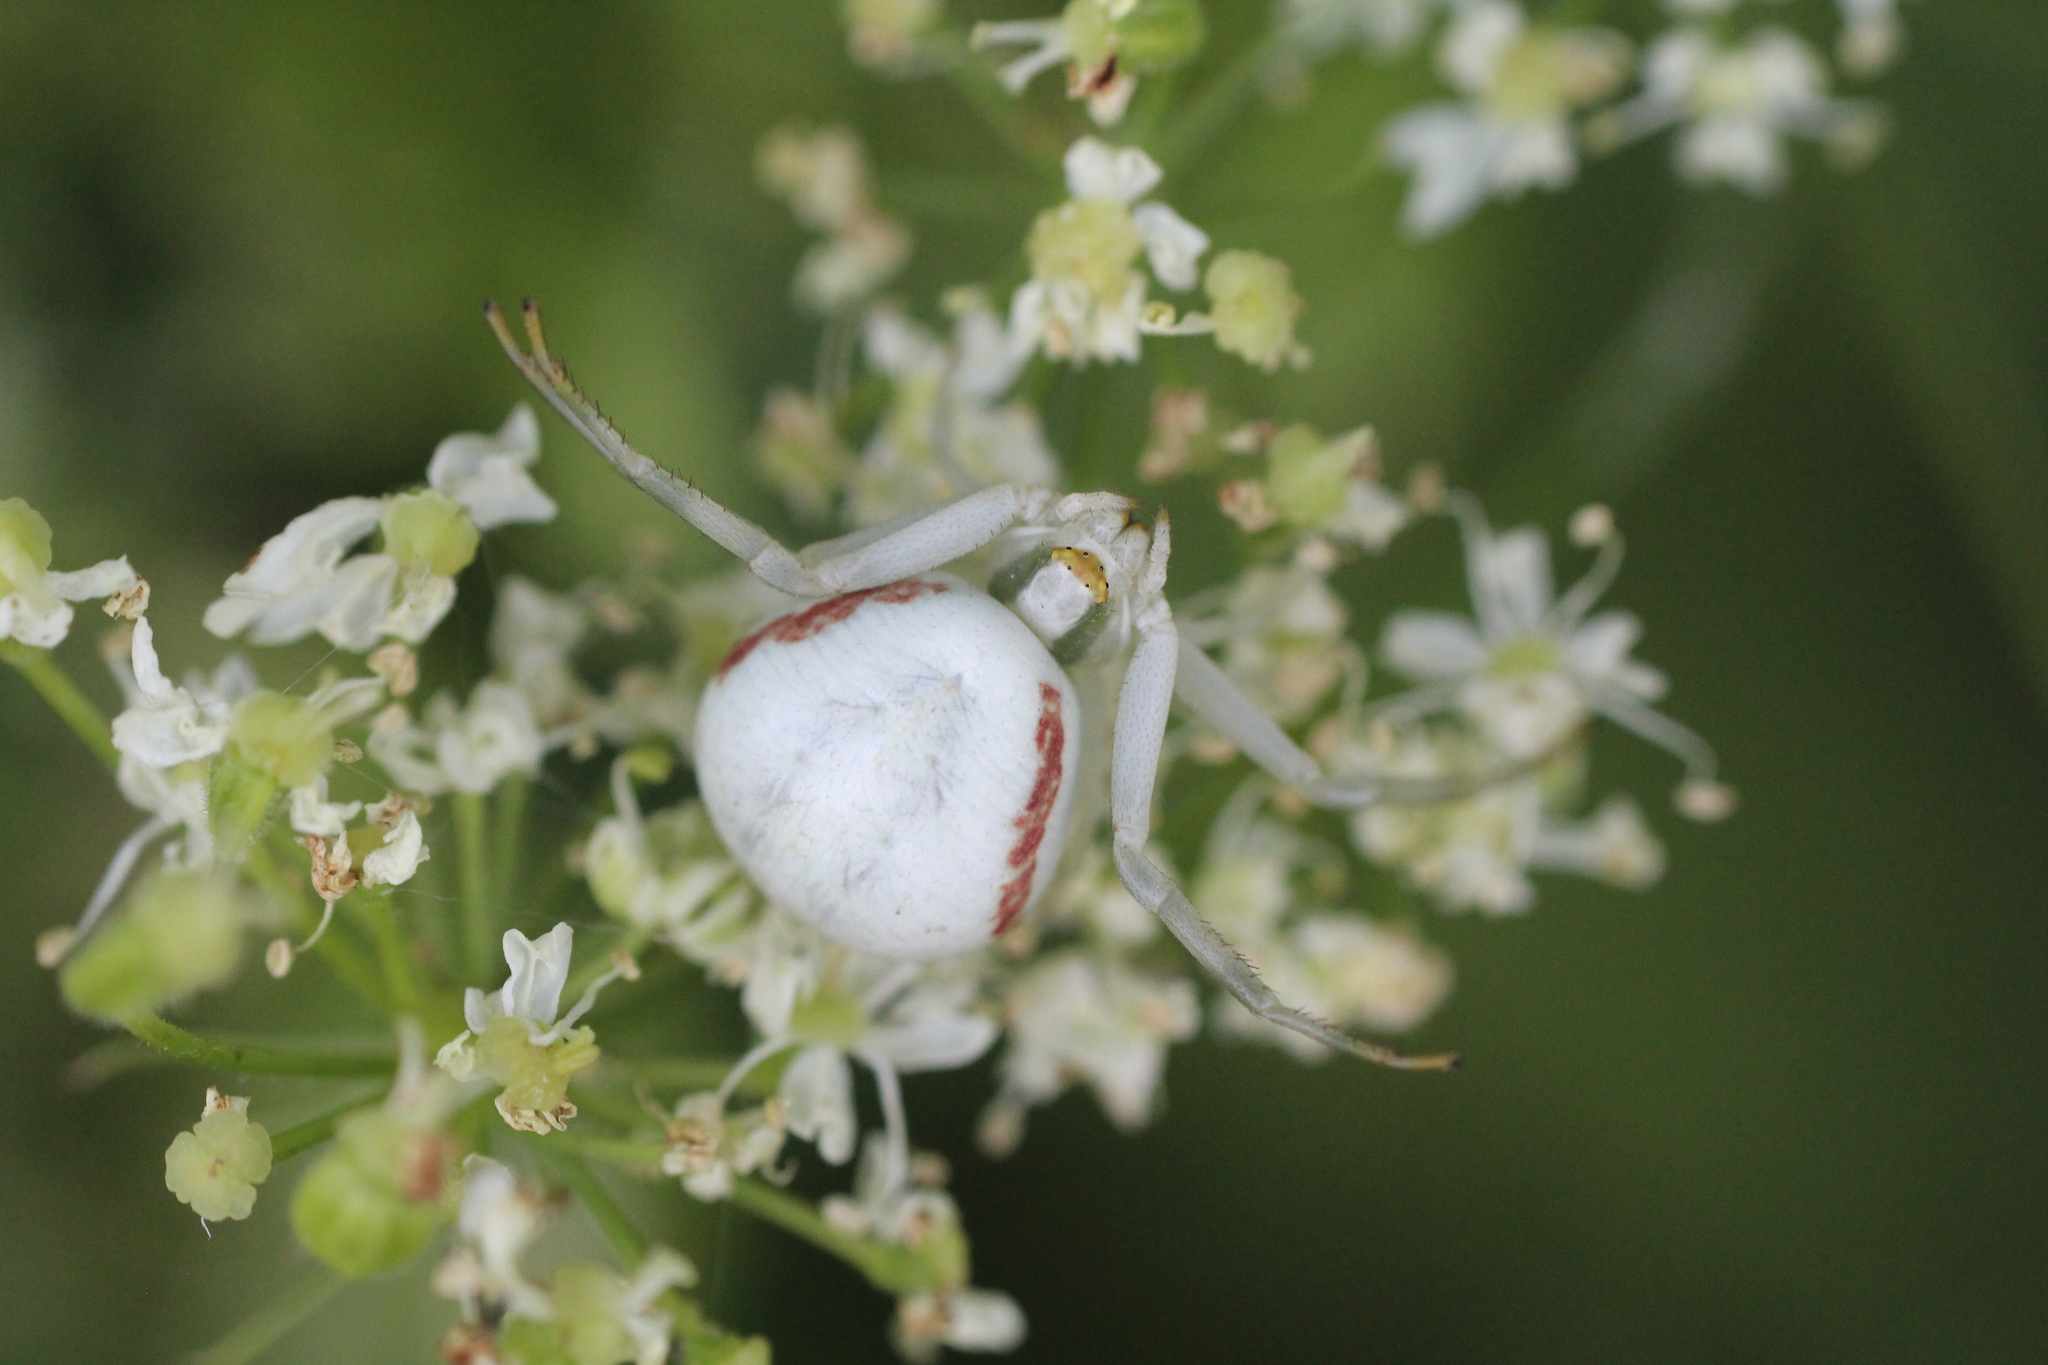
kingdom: Animalia
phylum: Arthropoda
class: Arachnida
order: Araneae
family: Thomisidae
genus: Misumena
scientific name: Misumena vatia
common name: Goldenrod crab spider
